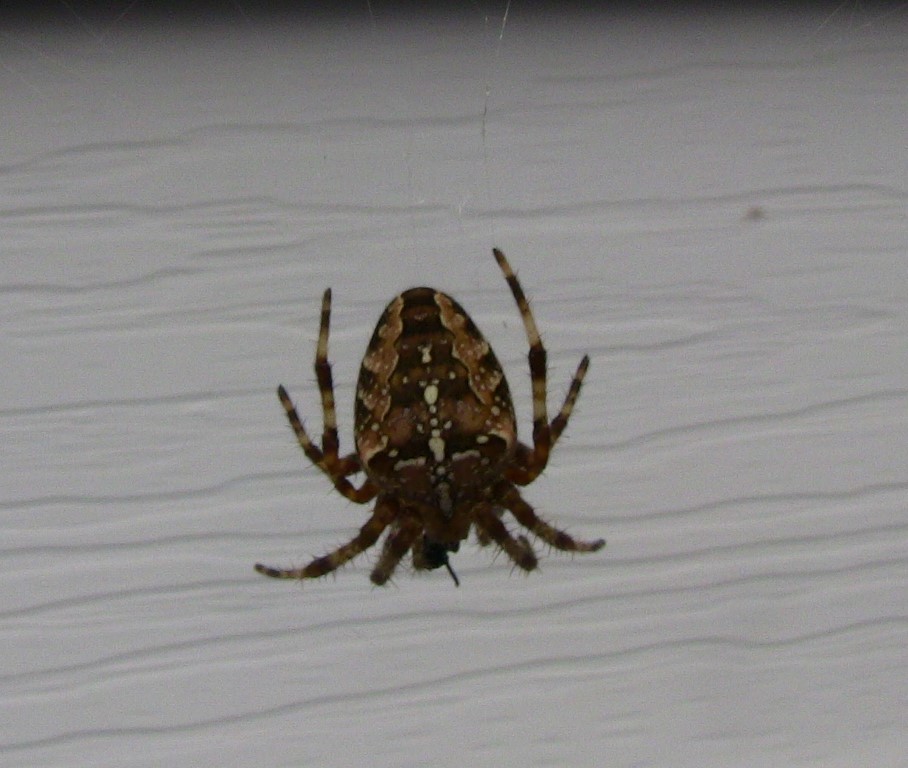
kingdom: Animalia
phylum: Arthropoda
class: Arachnida
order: Araneae
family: Araneidae
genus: Araneus
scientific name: Araneus diadematus
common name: Cross orbweaver
